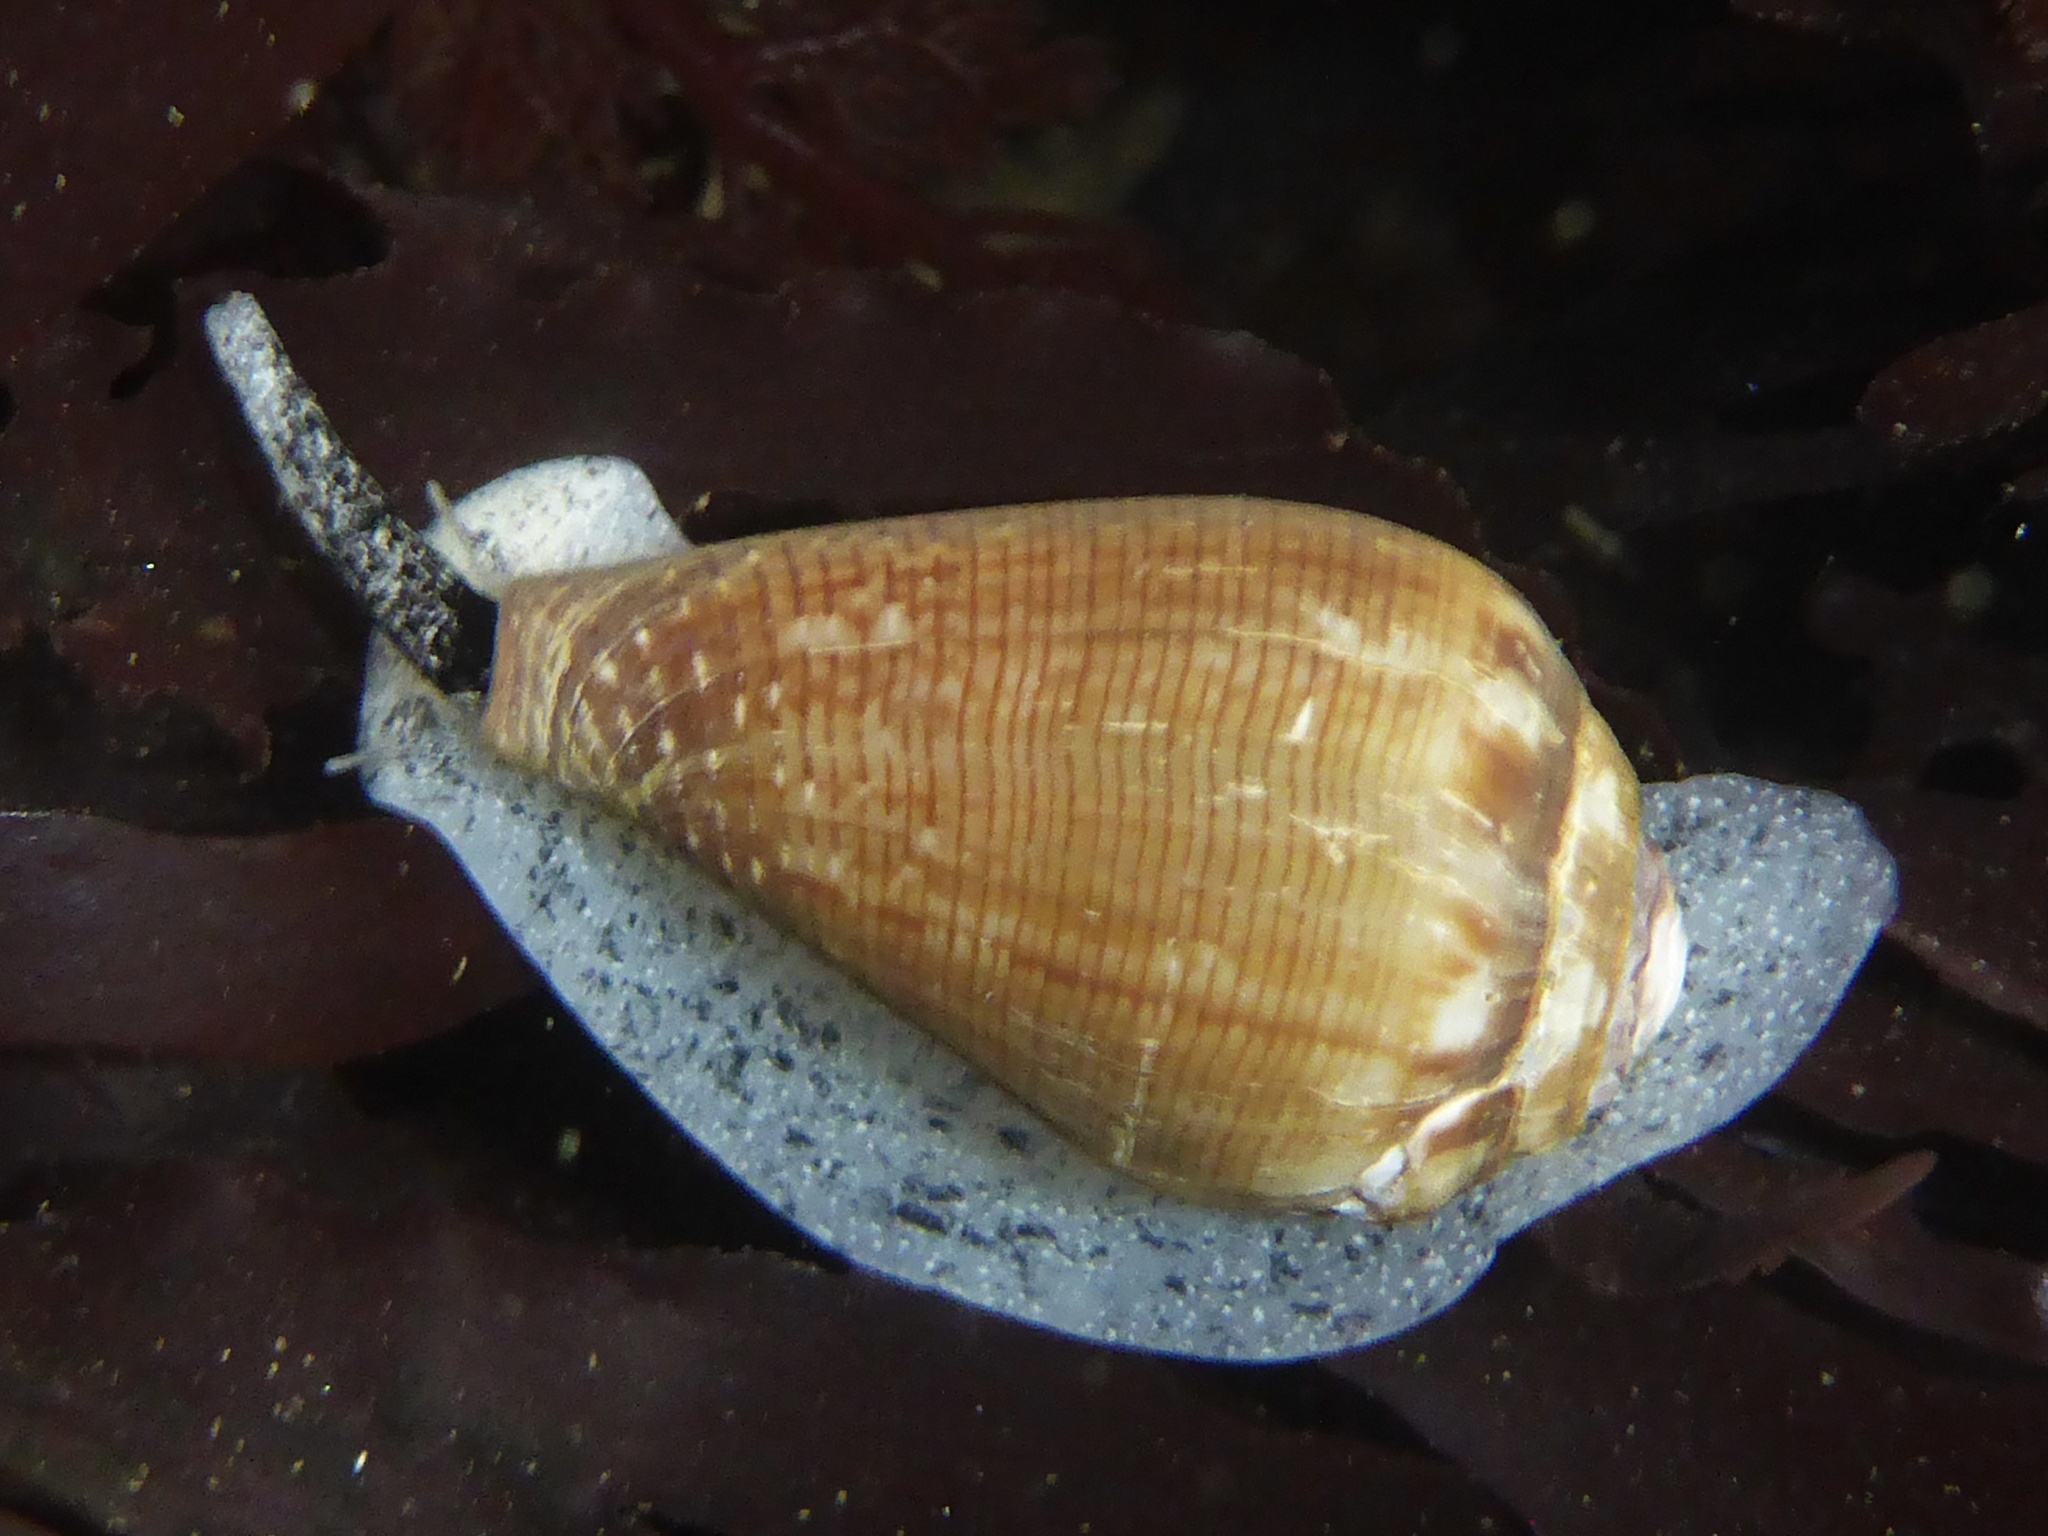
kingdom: Animalia
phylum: Mollusca
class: Gastropoda
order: Neogastropoda
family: Conidae
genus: Californiconus
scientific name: Californiconus californicus
